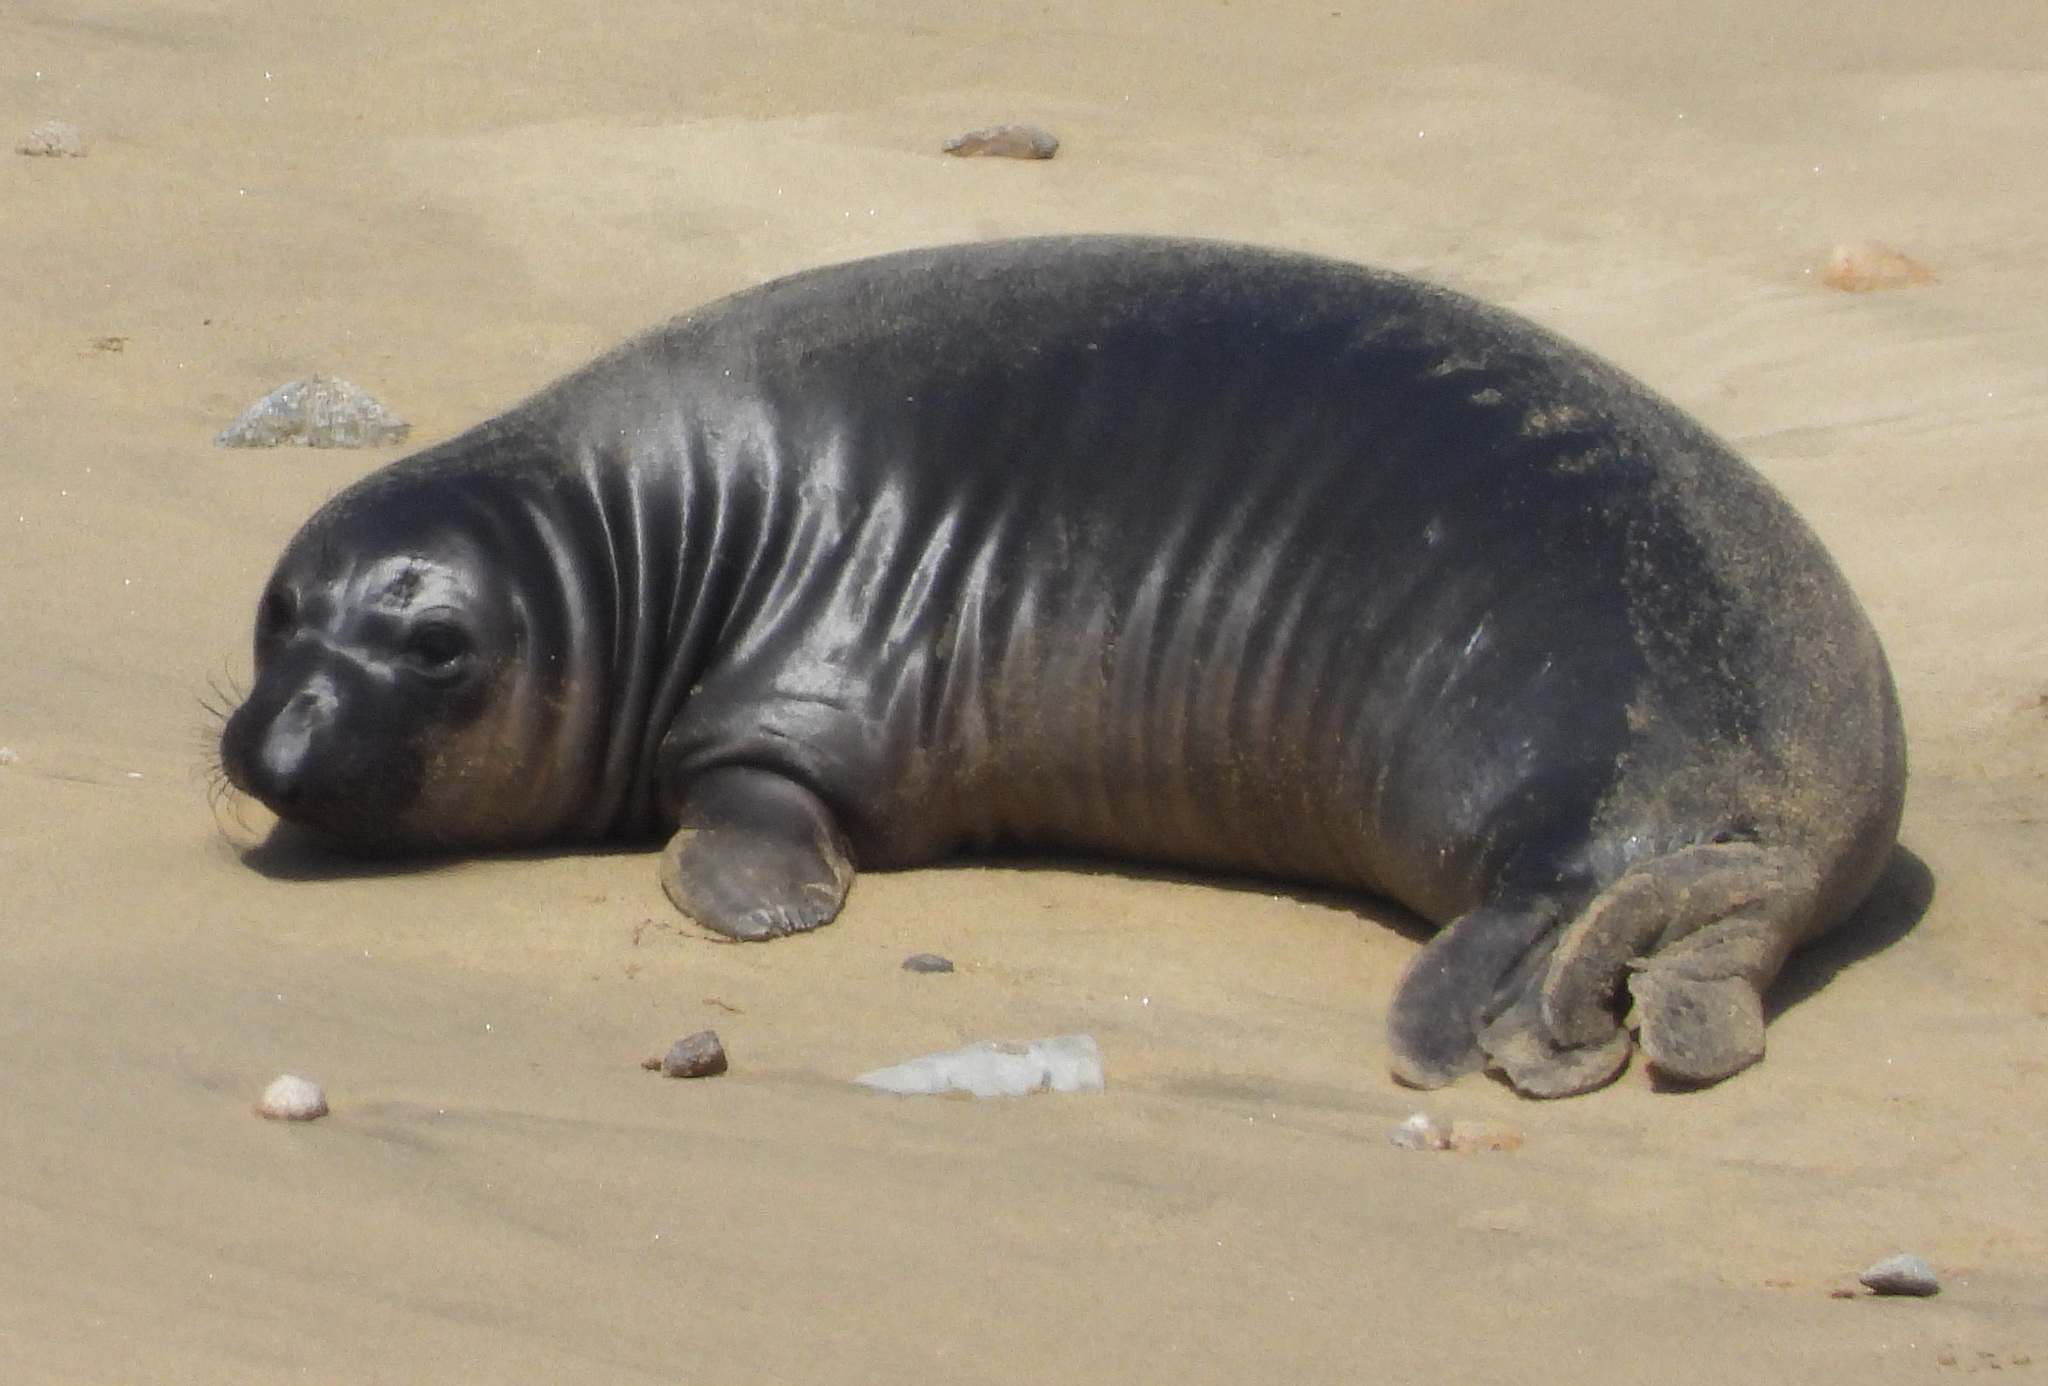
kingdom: Animalia
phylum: Chordata
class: Mammalia
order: Carnivora
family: Phocidae
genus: Mirounga
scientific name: Mirounga angustirostris
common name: Northern elephant seal
